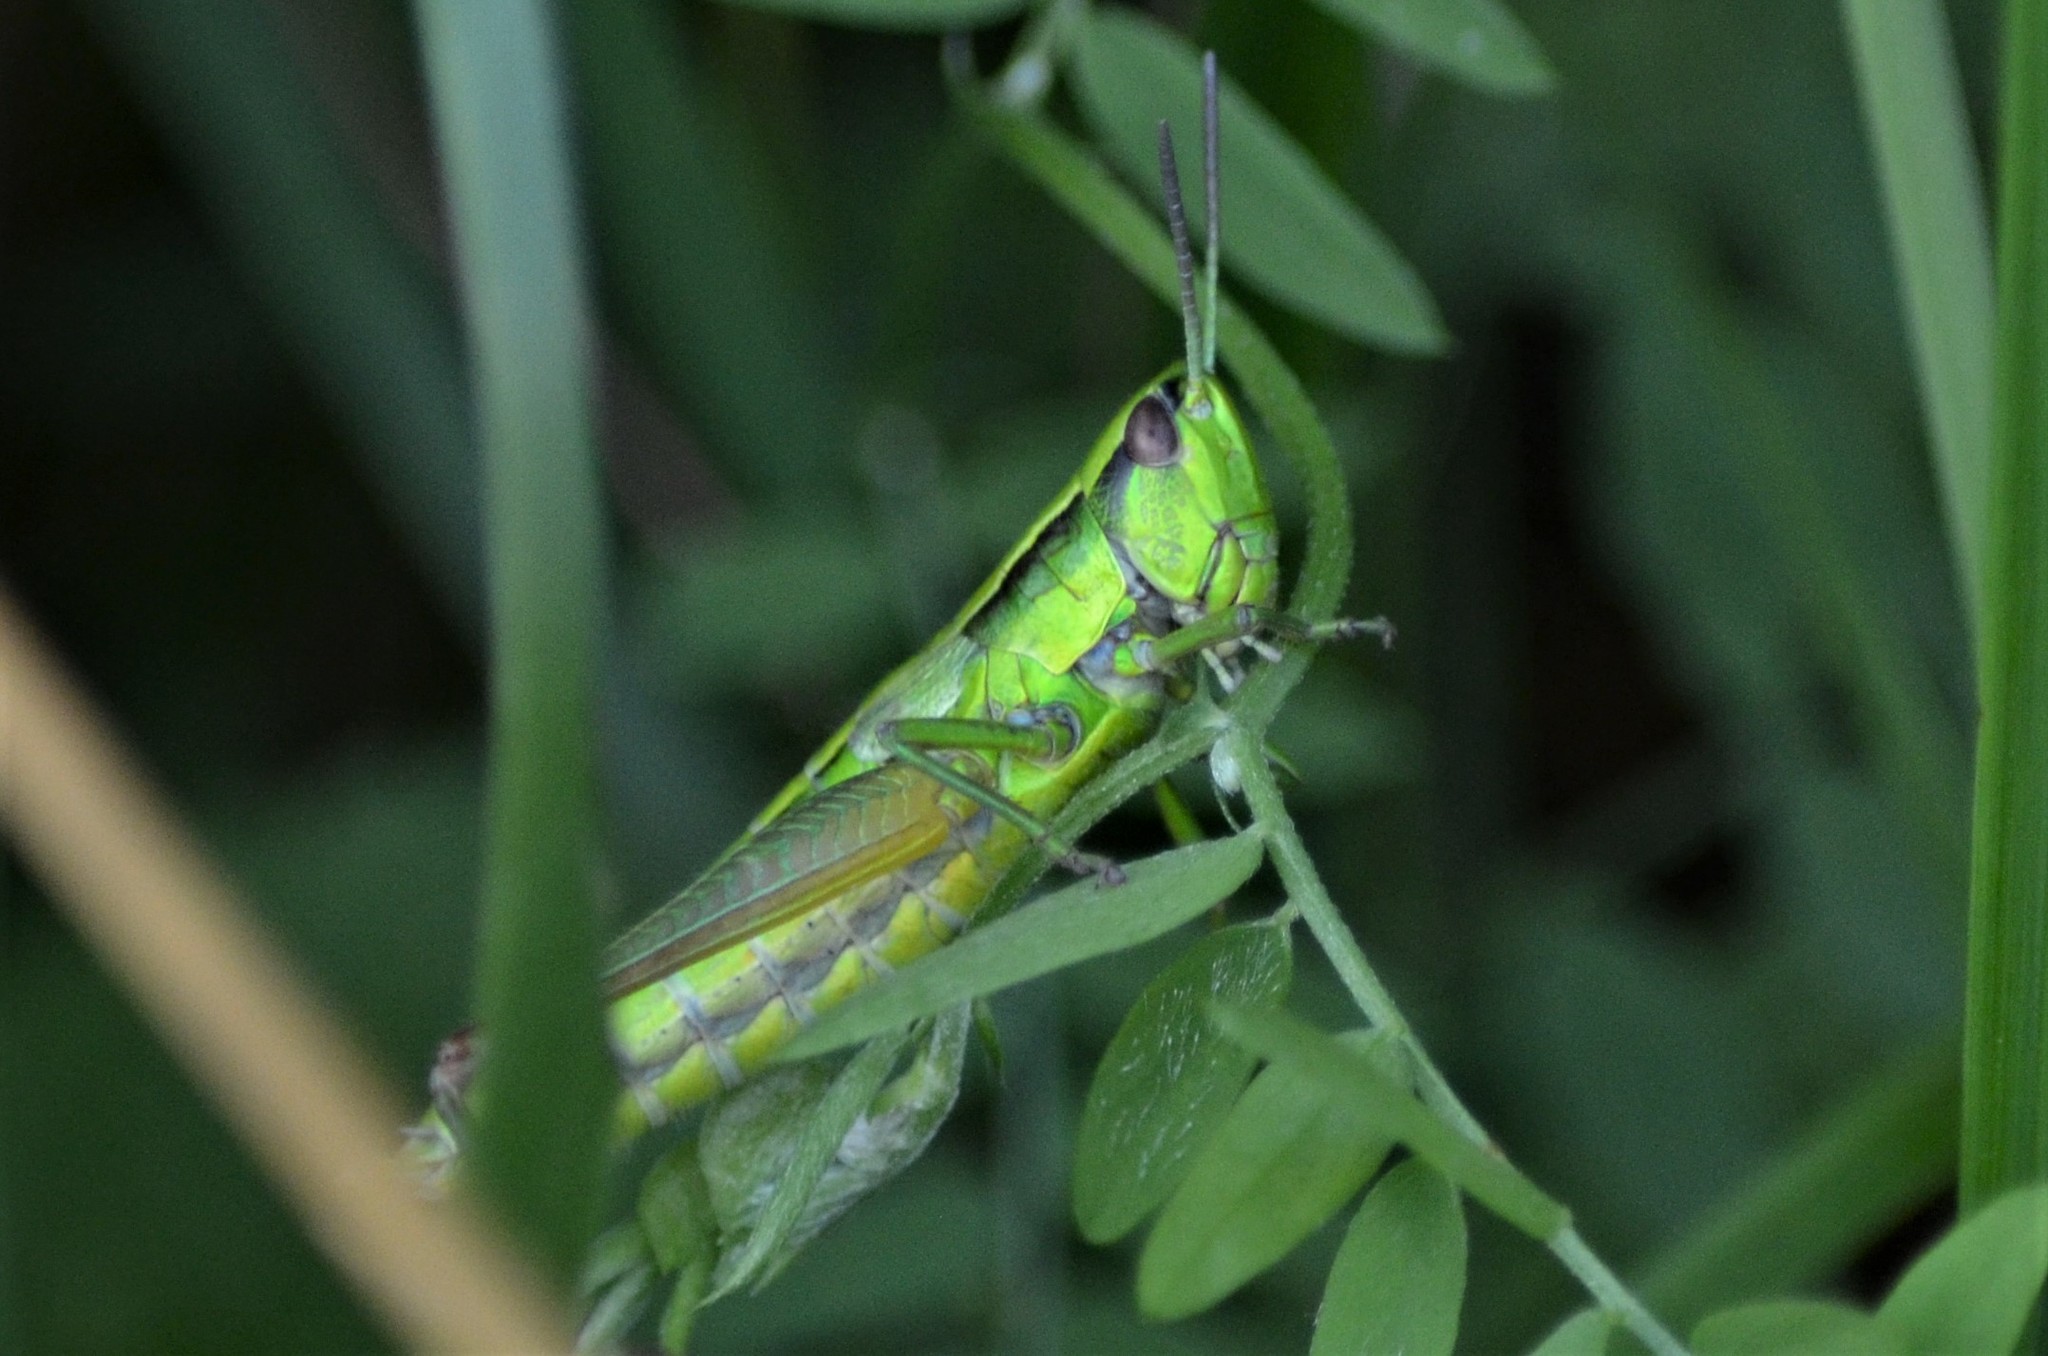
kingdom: Animalia
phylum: Arthropoda
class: Insecta
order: Orthoptera
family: Acrididae
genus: Euthystira
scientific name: Euthystira brachyptera
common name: Small gold grasshopper
